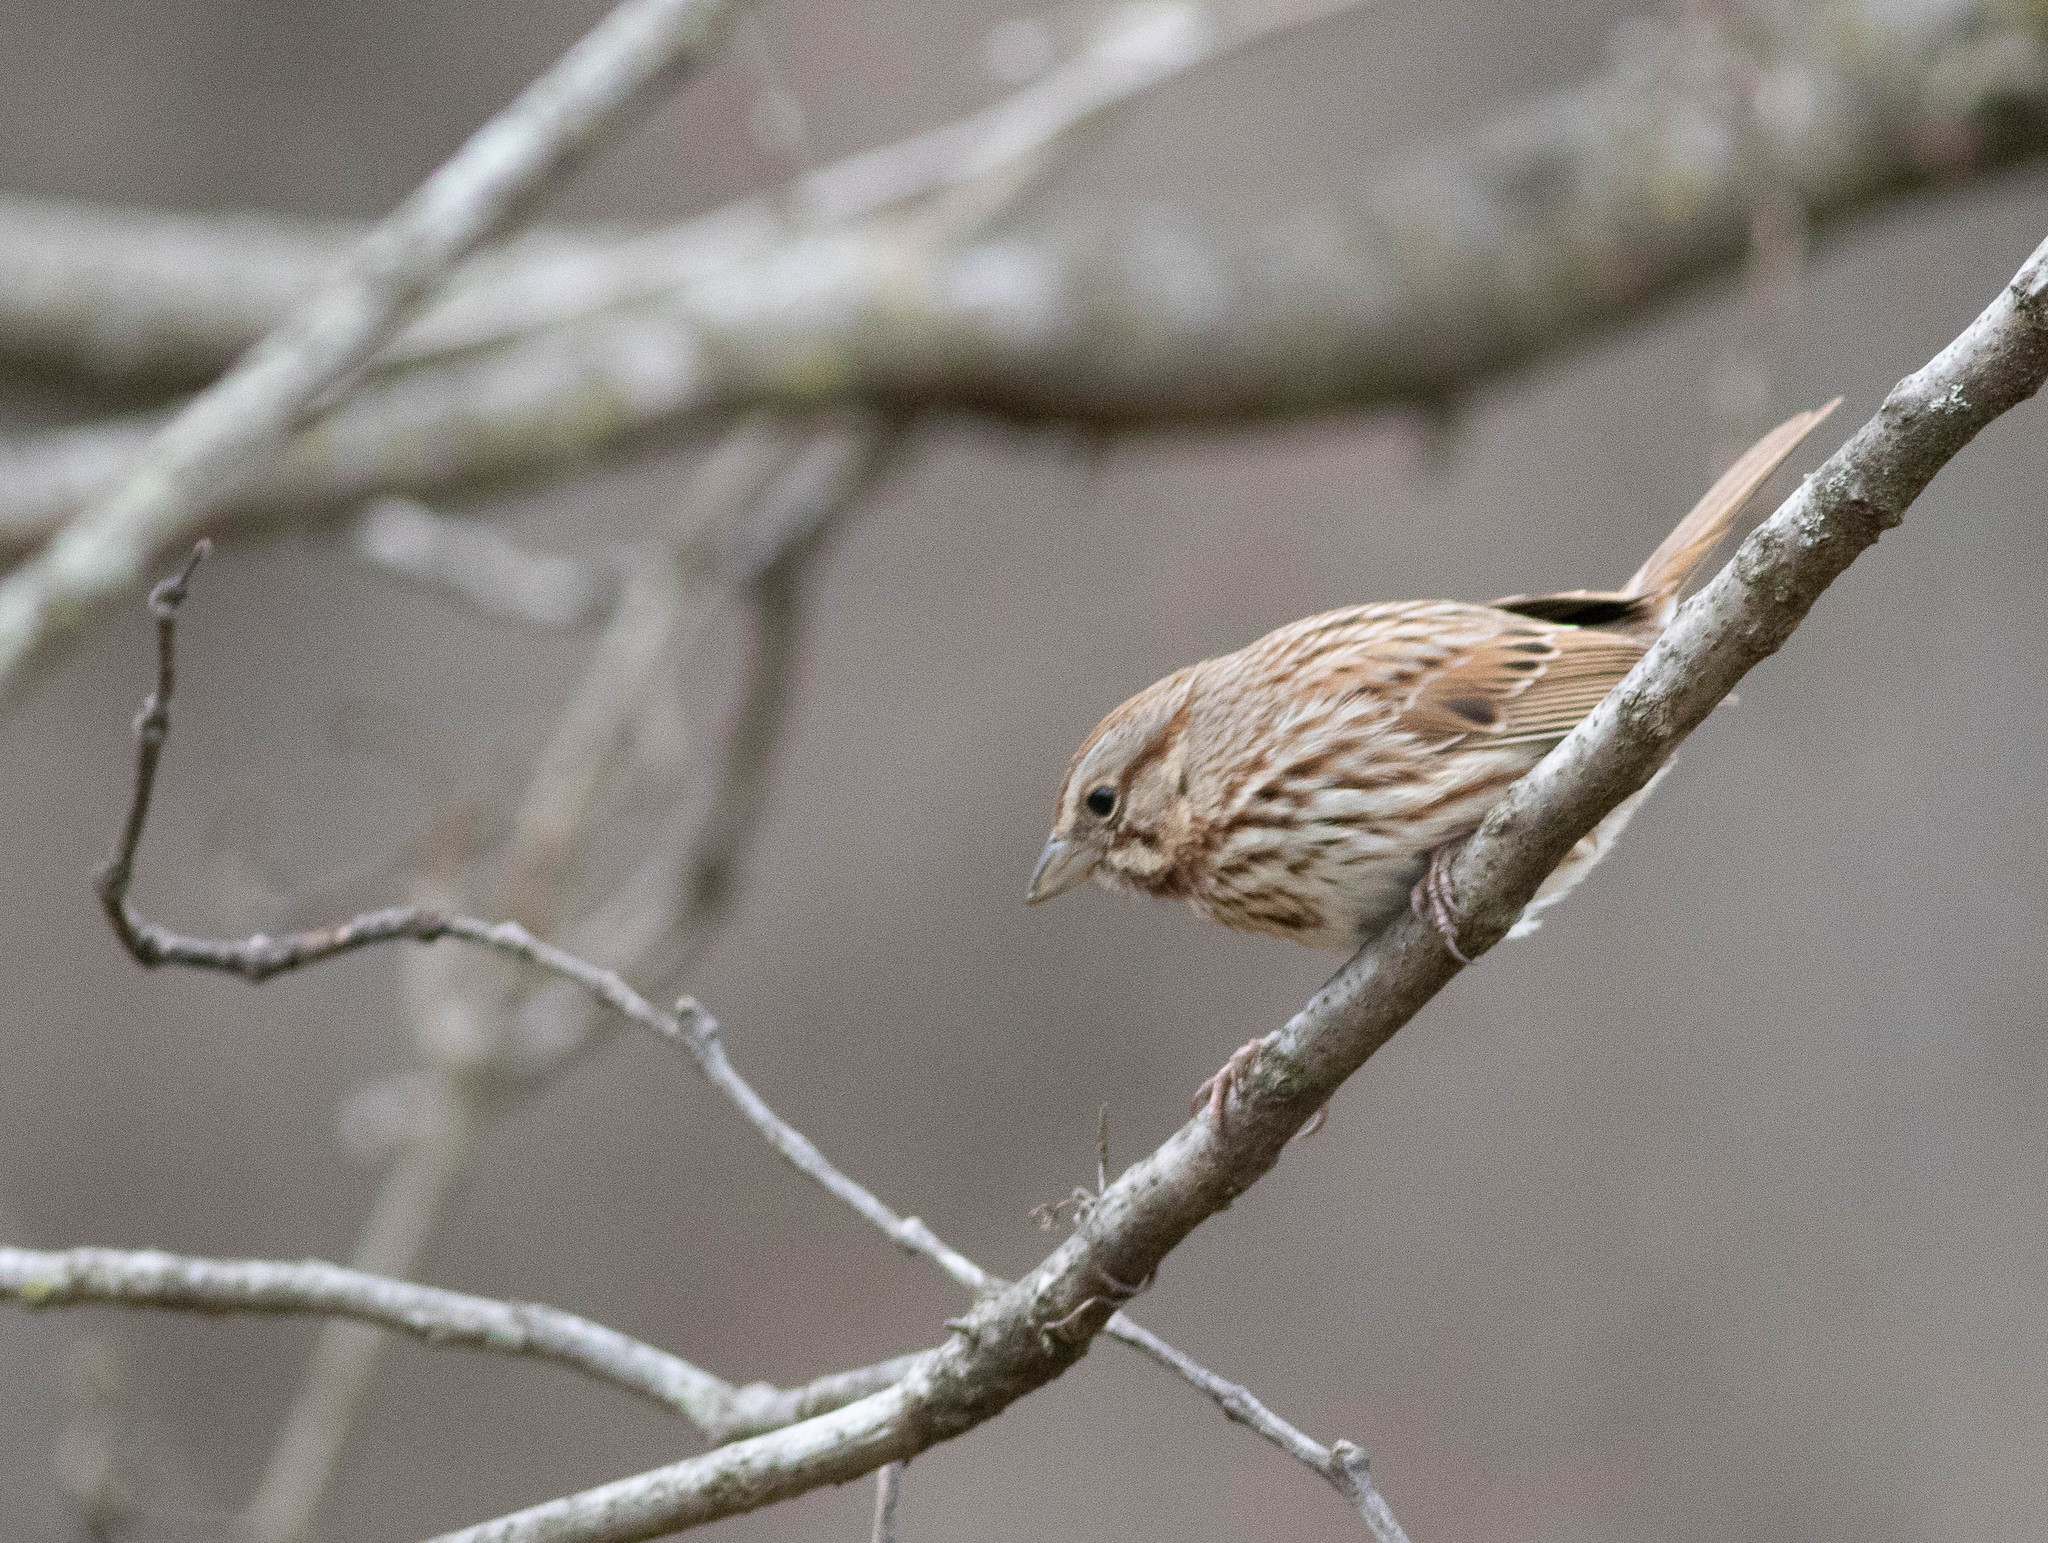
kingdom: Animalia
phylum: Chordata
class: Aves
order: Passeriformes
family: Passerellidae
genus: Melospiza
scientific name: Melospiza melodia
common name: Song sparrow
